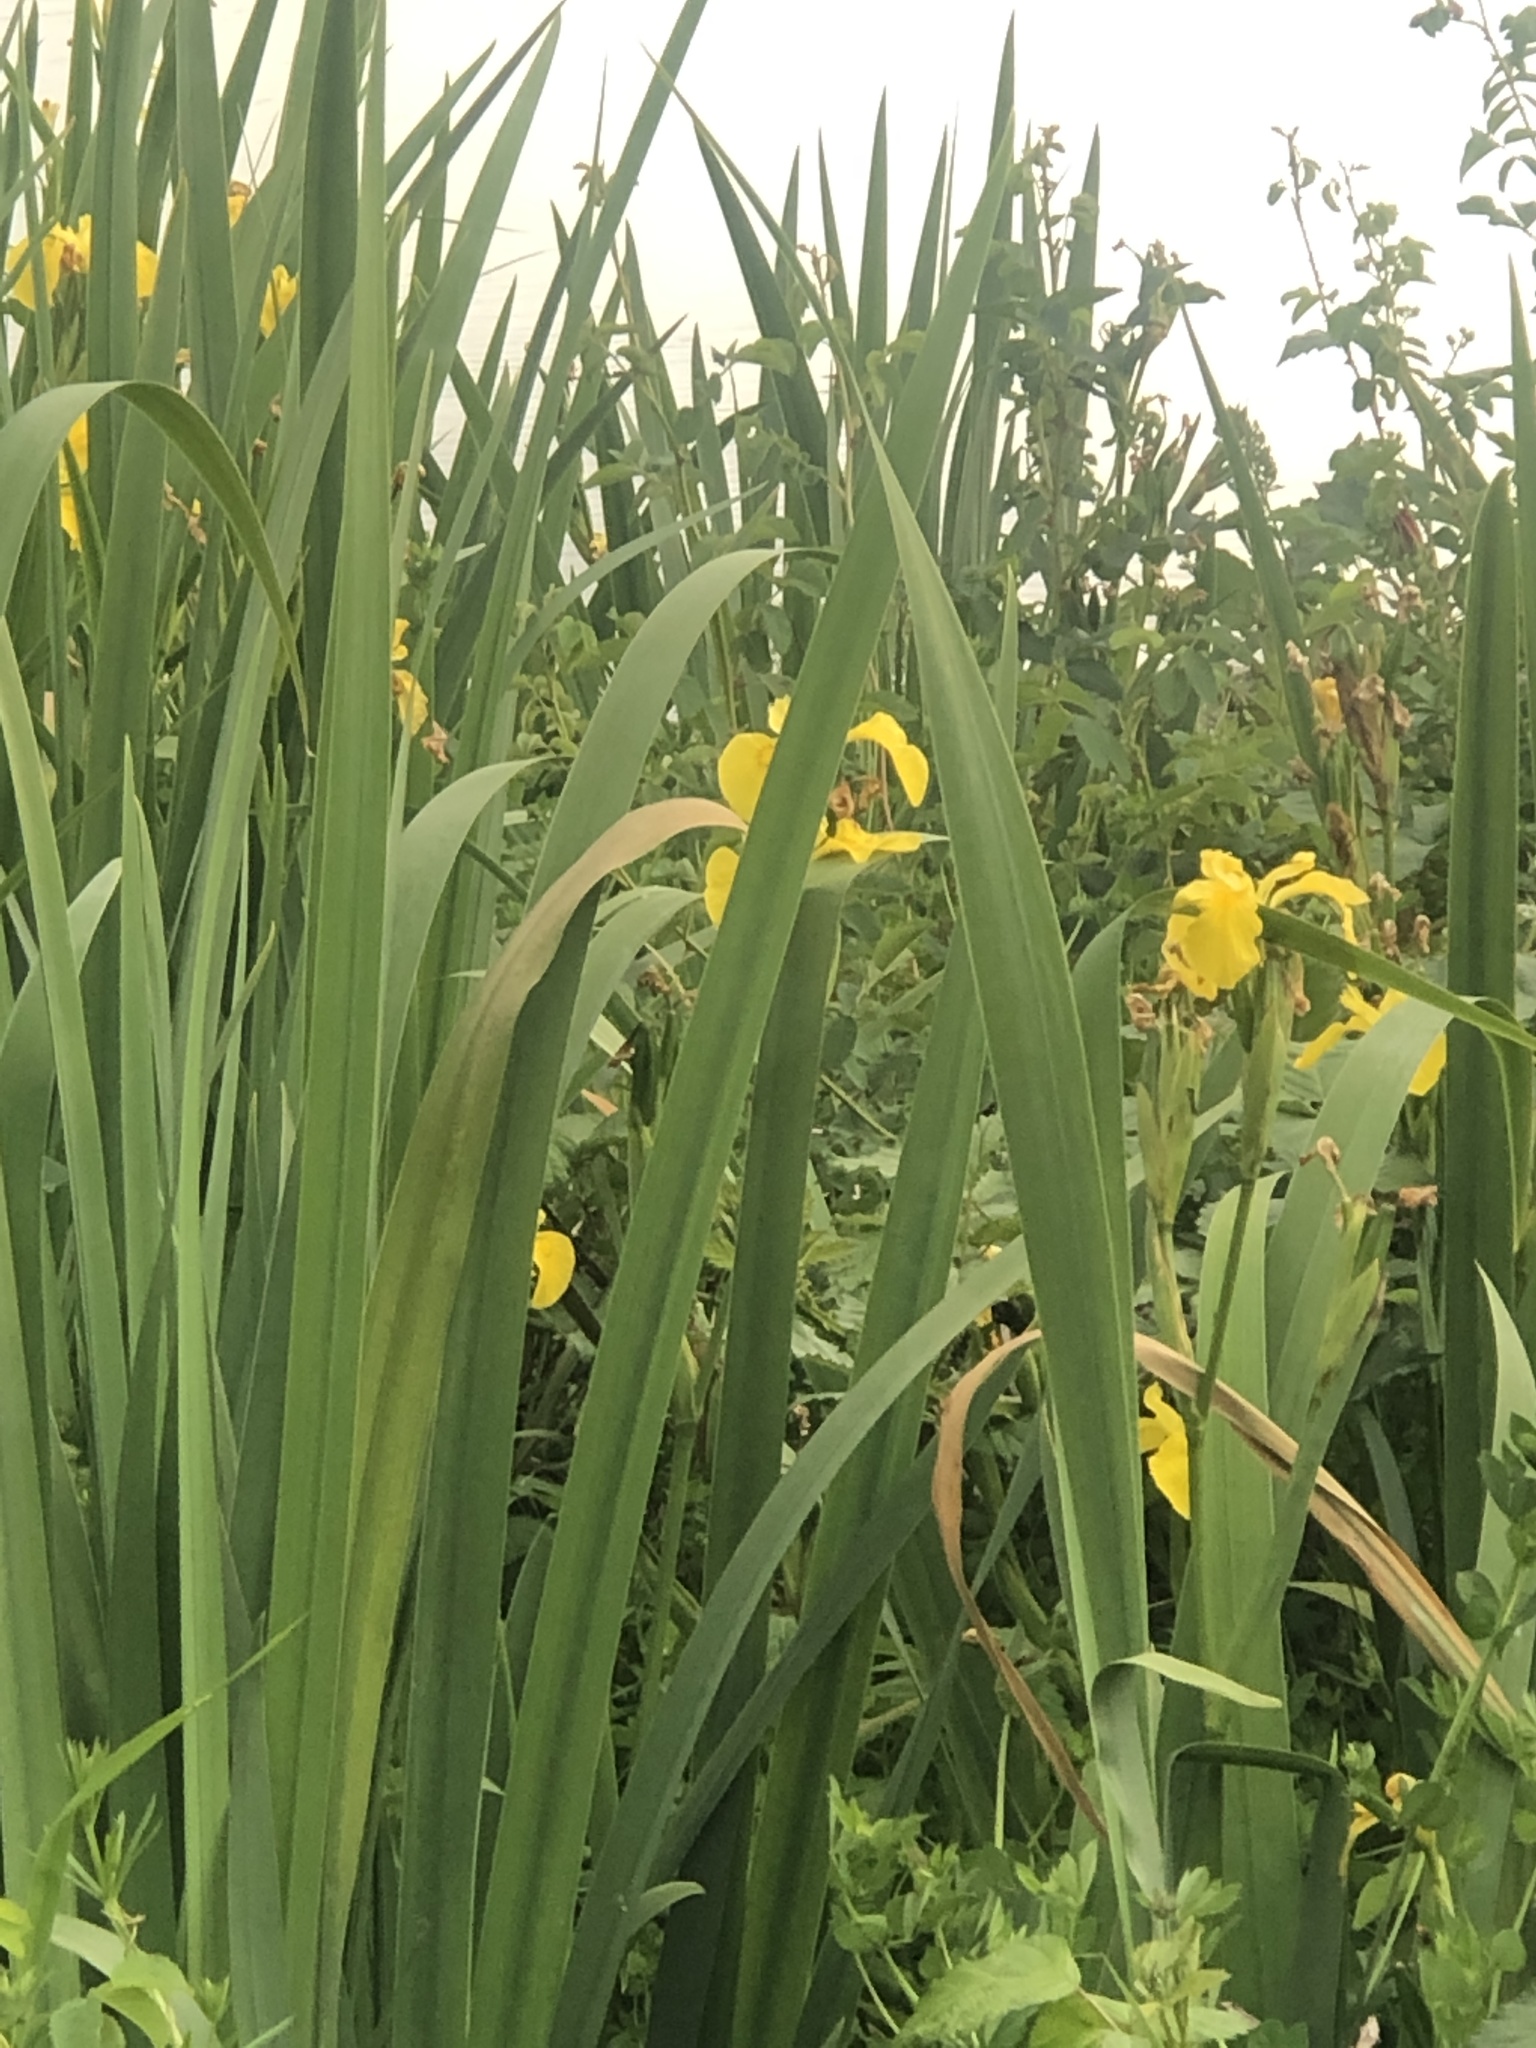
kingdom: Plantae
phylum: Tracheophyta
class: Liliopsida
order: Asparagales
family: Iridaceae
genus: Iris
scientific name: Iris pseudacorus
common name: Yellow flag
